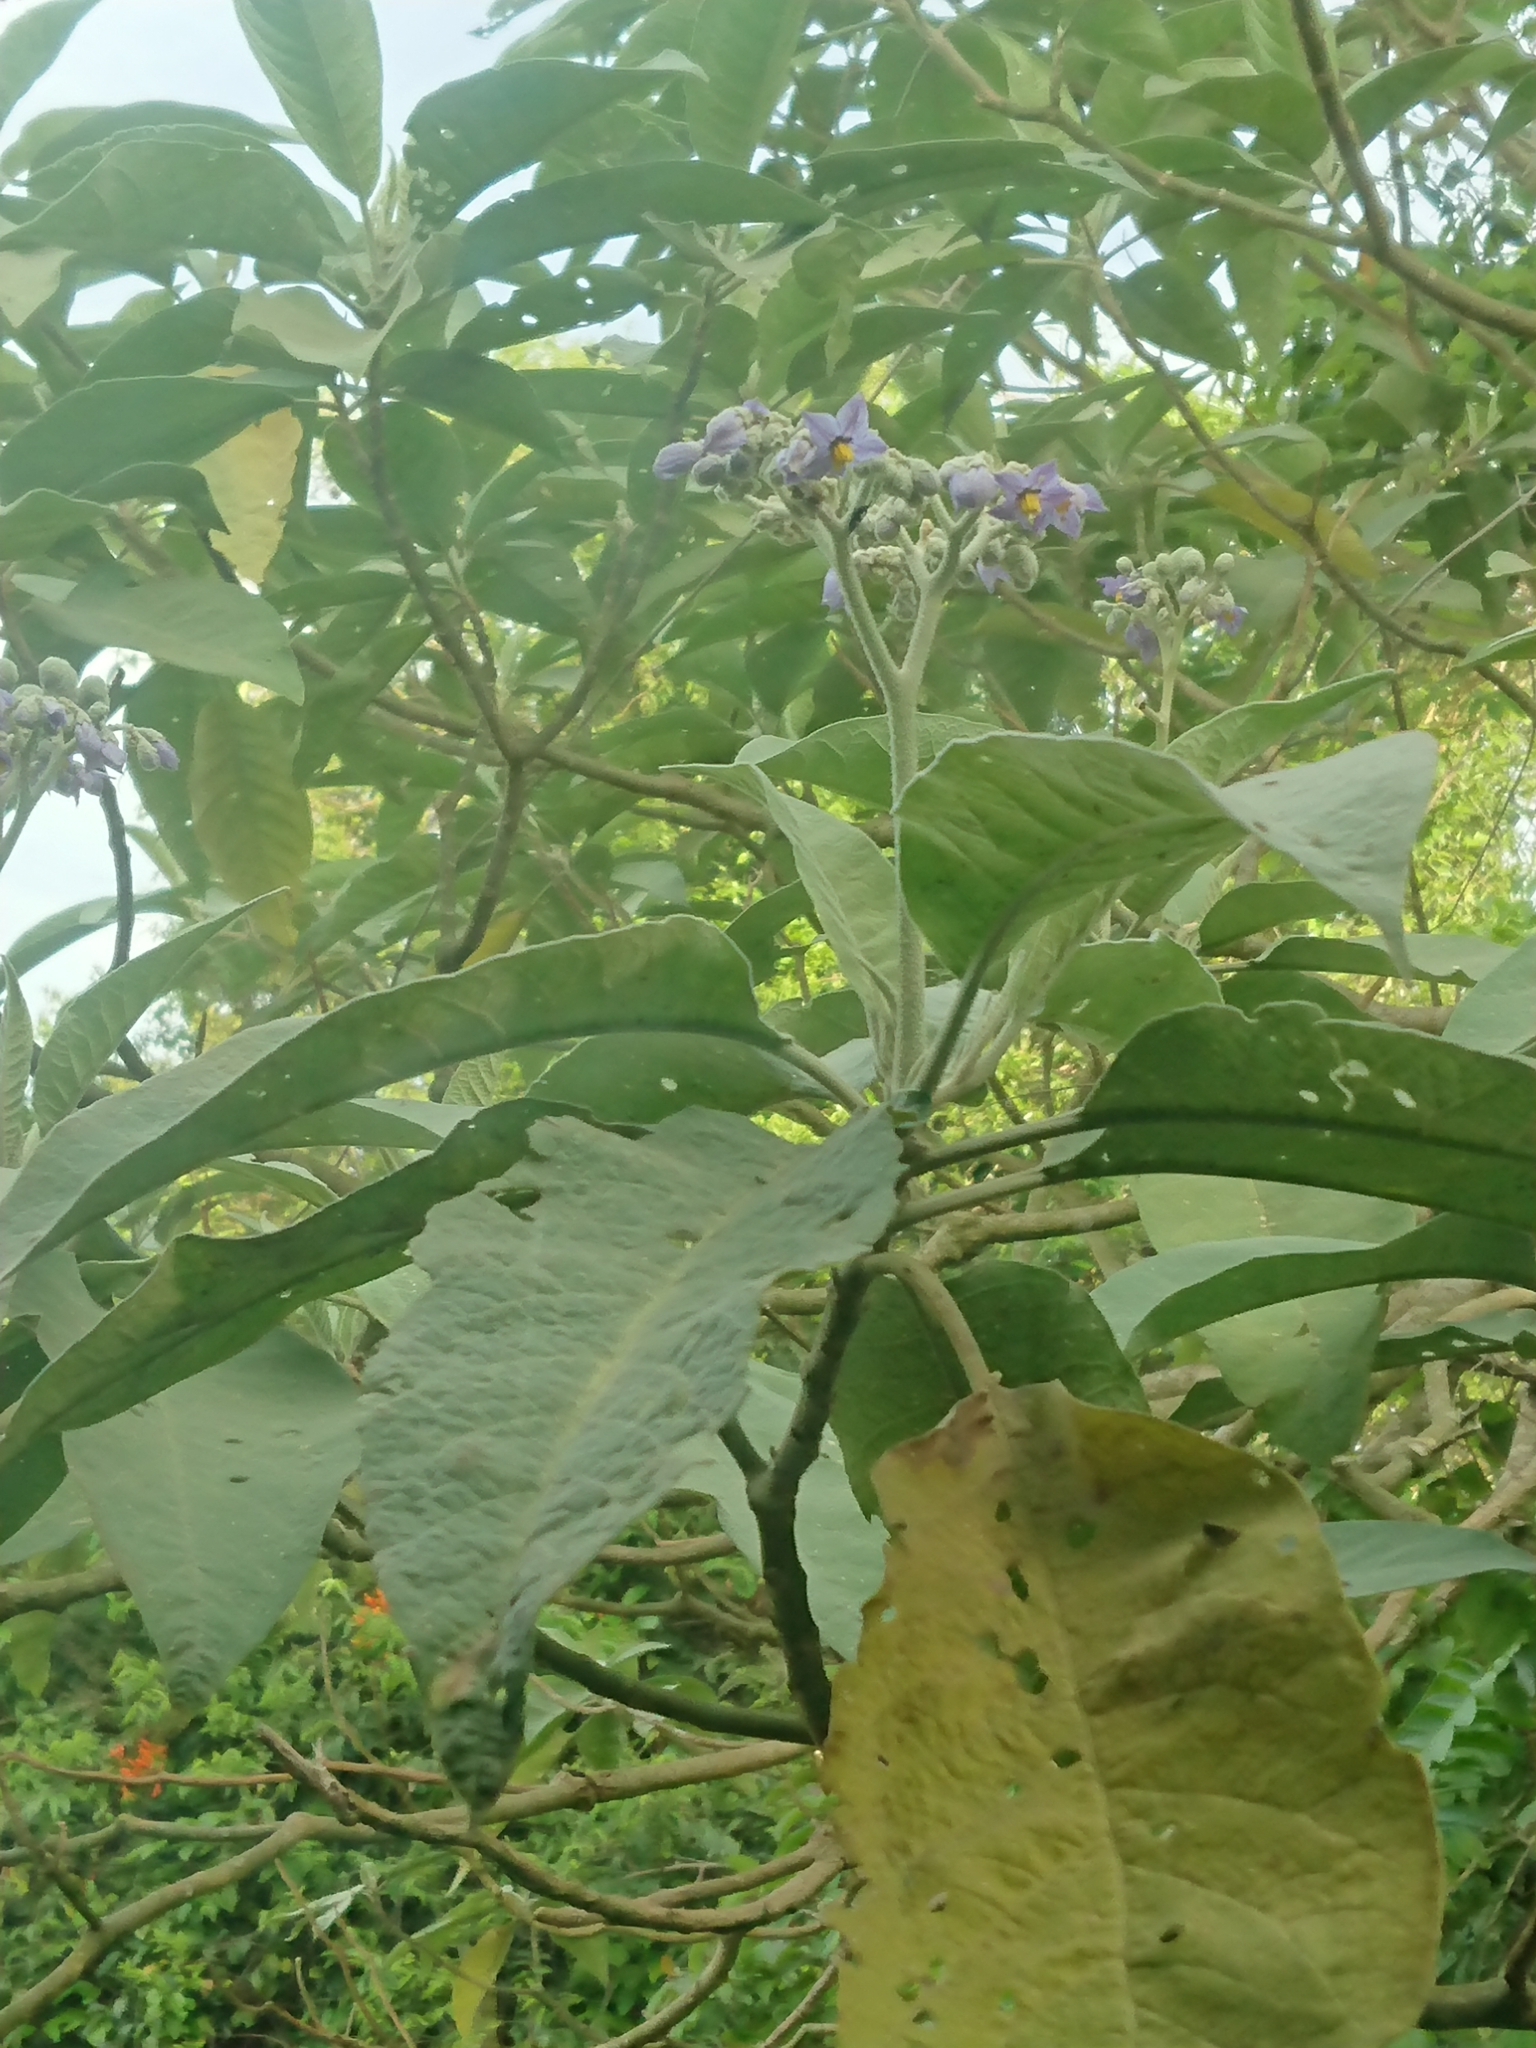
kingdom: Plantae
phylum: Tracheophyta
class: Magnoliopsida
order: Solanales
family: Solanaceae
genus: Solanum
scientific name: Solanum granulosoleprosum
